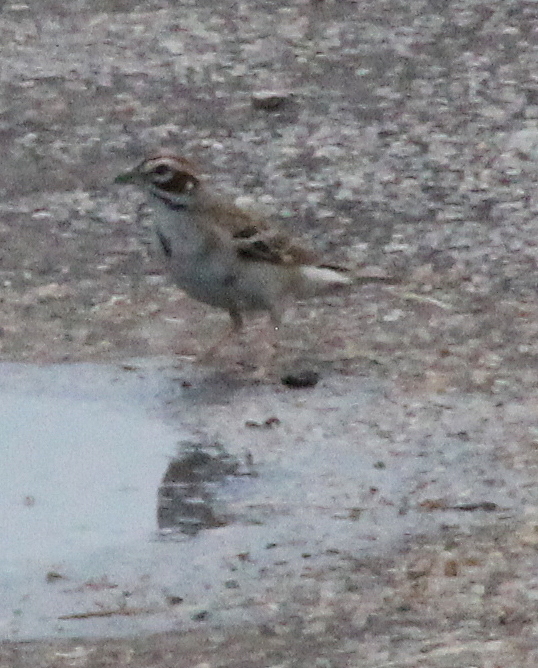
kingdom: Animalia
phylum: Chordata
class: Aves
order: Passeriformes
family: Passerellidae
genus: Chondestes
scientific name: Chondestes grammacus
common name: Lark sparrow
